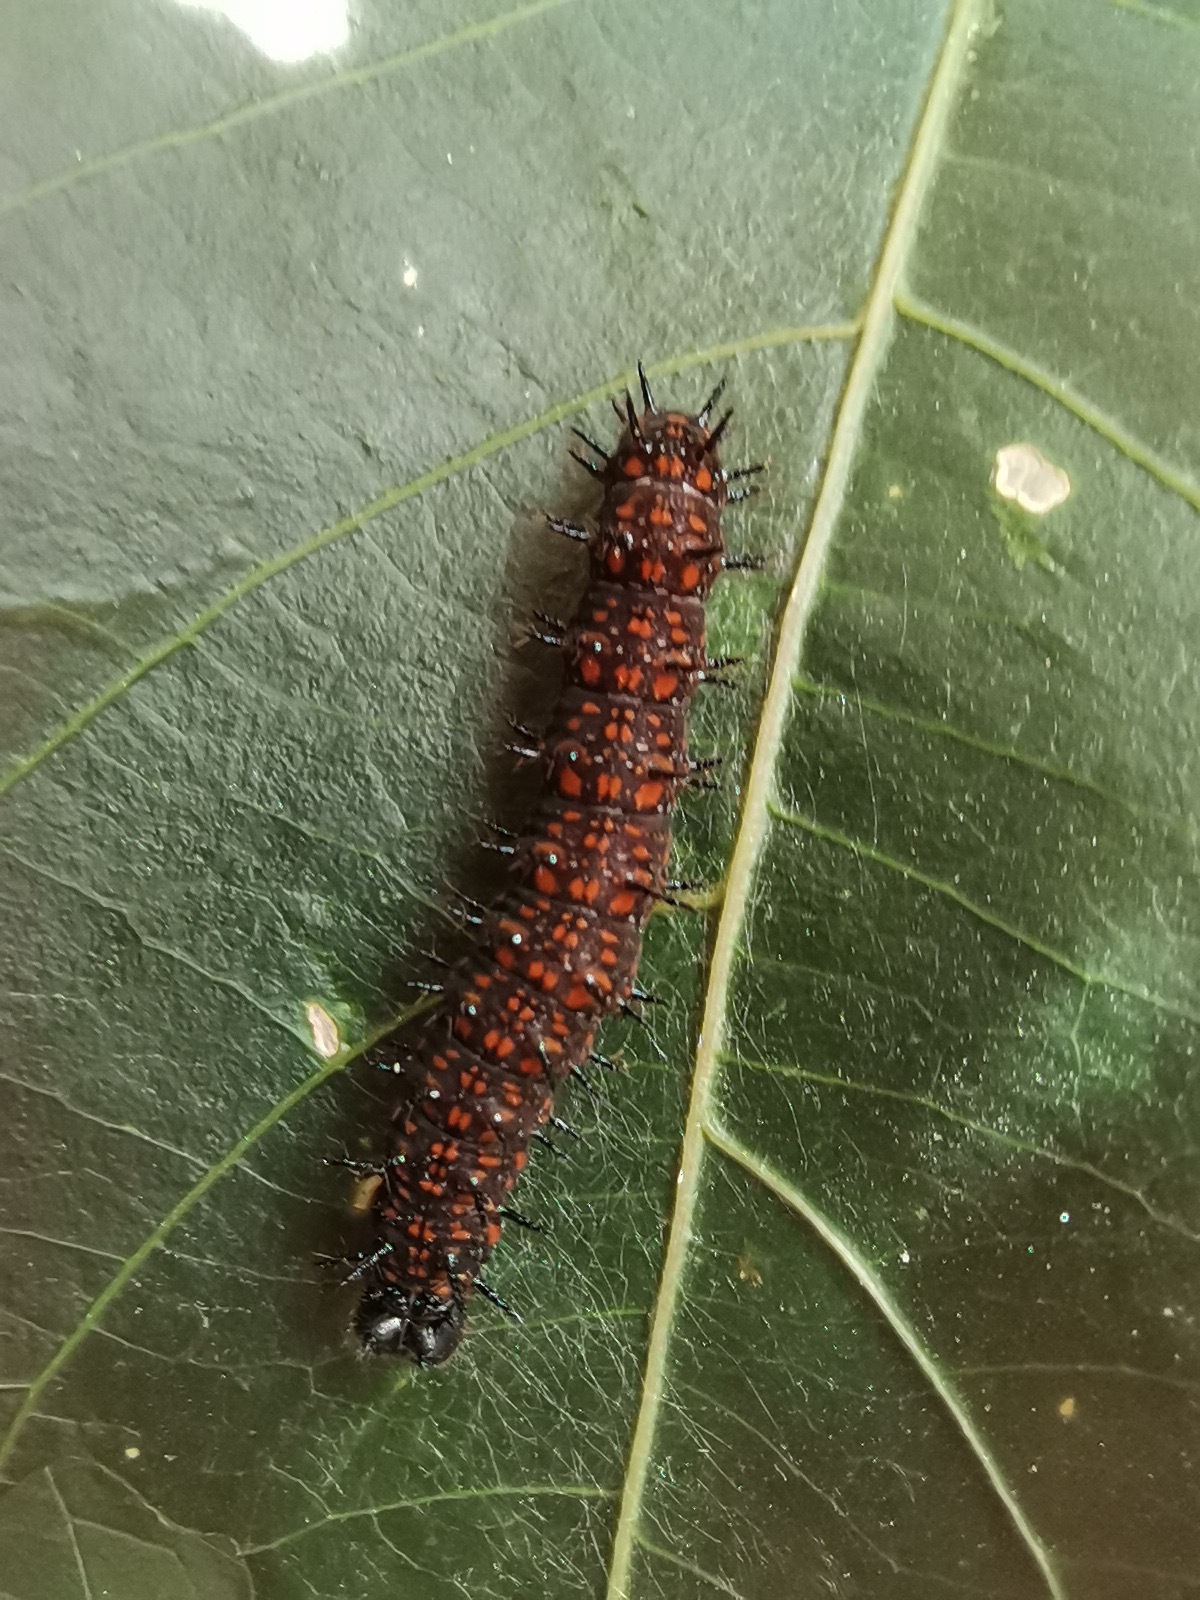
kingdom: Animalia
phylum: Arthropoda
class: Insecta
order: Lepidoptera
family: Nymphalidae
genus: Dione
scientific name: Dione juno
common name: Juno silverspot
